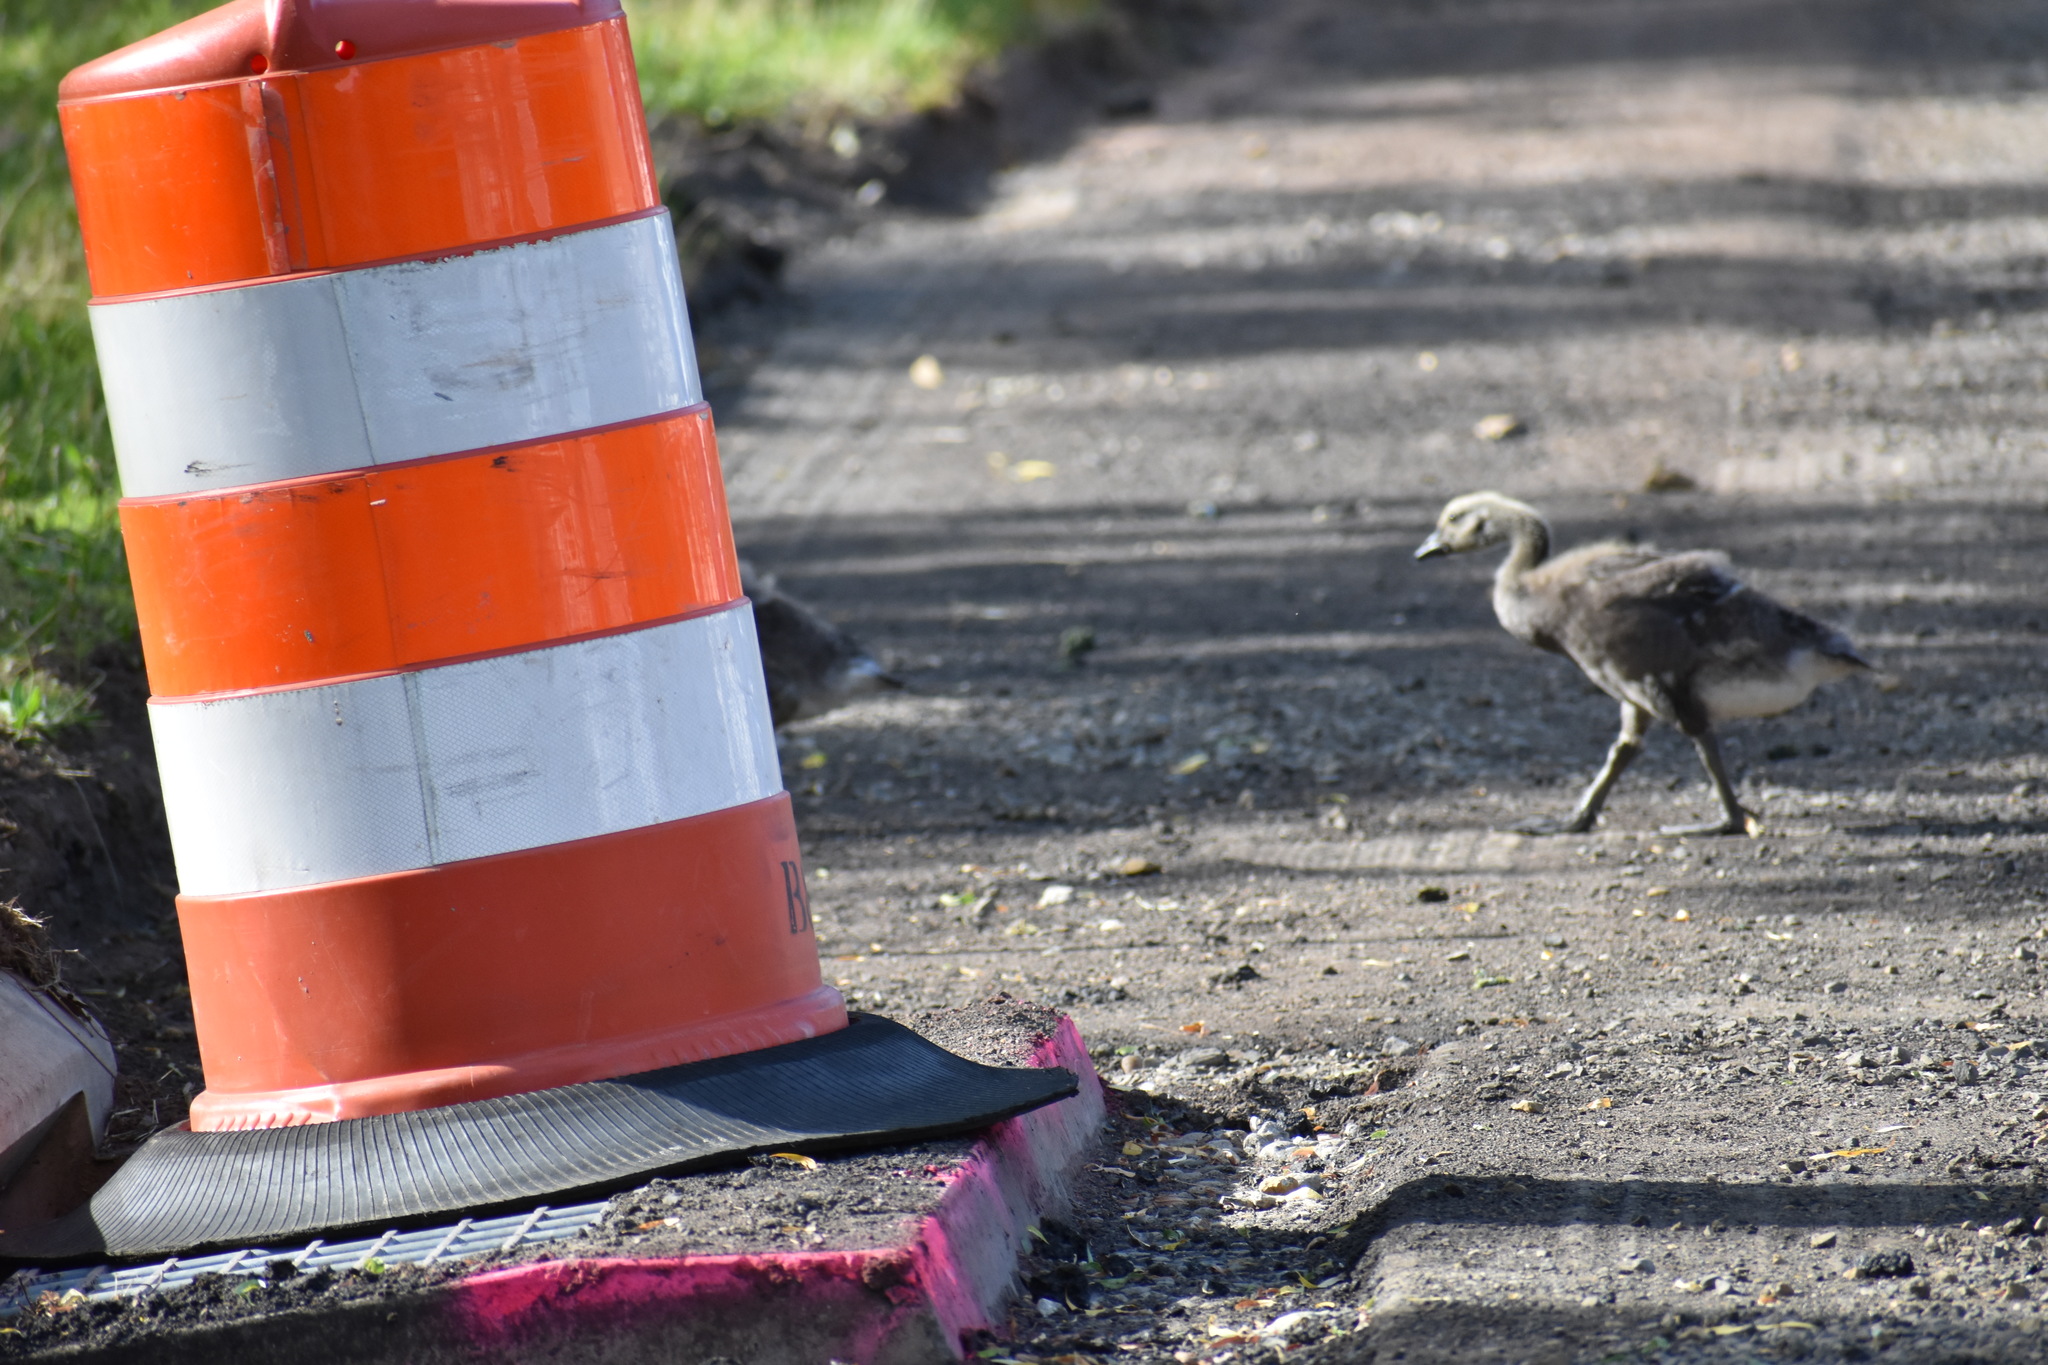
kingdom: Animalia
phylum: Chordata
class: Aves
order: Anseriformes
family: Anatidae
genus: Branta
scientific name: Branta canadensis
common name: Canada goose
